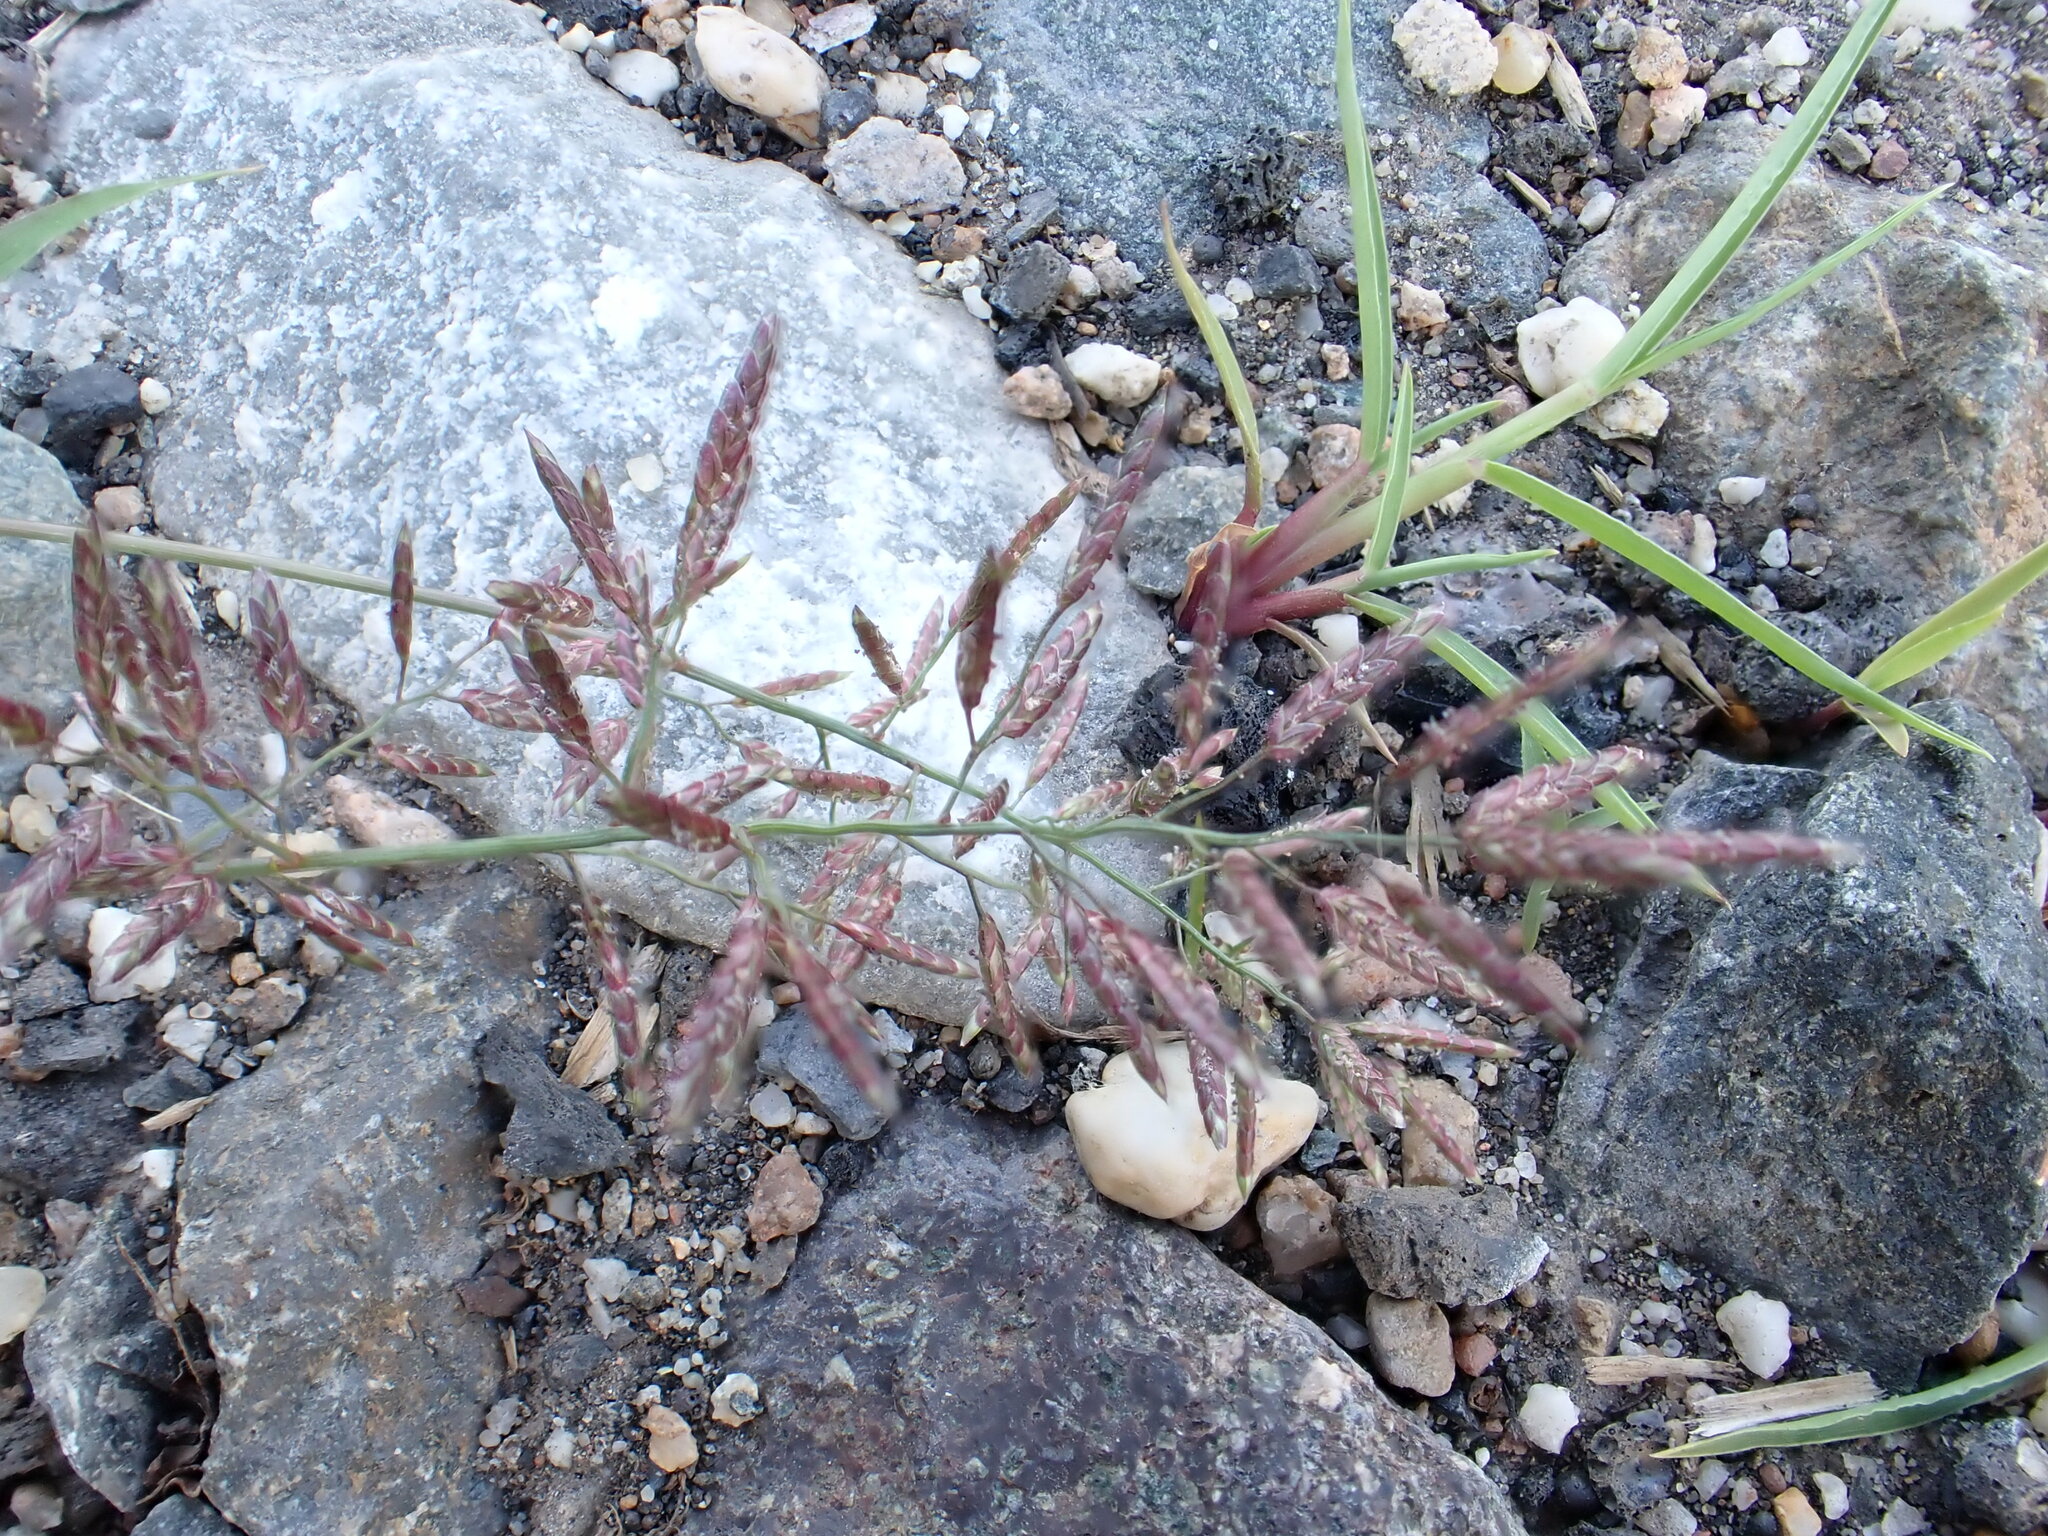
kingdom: Plantae
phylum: Tracheophyta
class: Liliopsida
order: Poales
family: Poaceae
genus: Eragrostis
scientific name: Eragrostis minor
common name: Small love-grass
